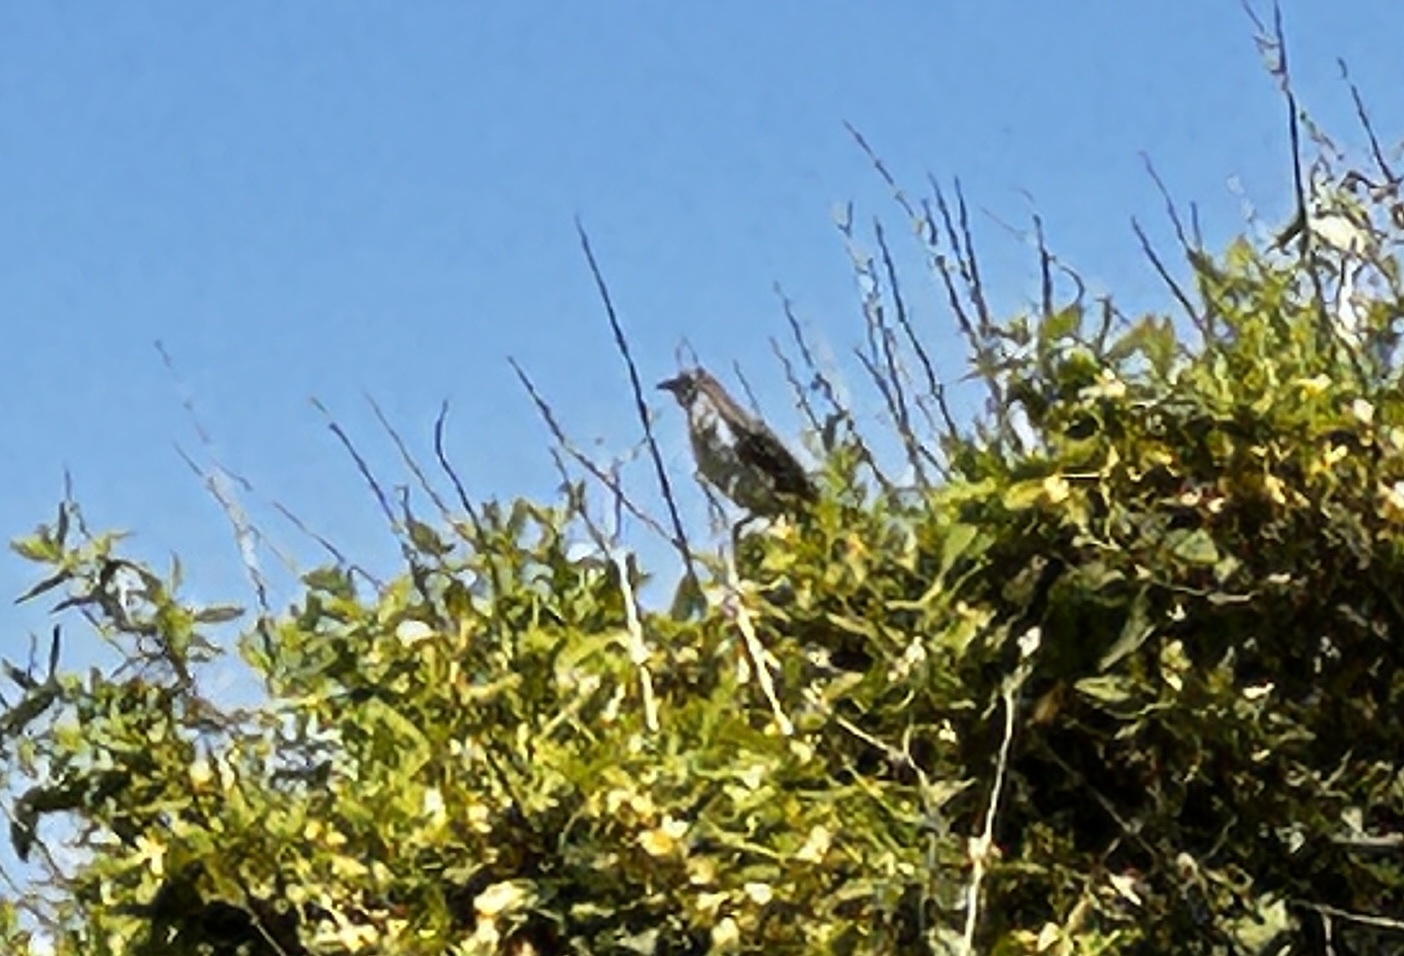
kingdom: Animalia
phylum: Chordata
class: Aves
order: Passeriformes
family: Mimidae
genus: Mimus
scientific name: Mimus polyglottos
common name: Northern mockingbird
